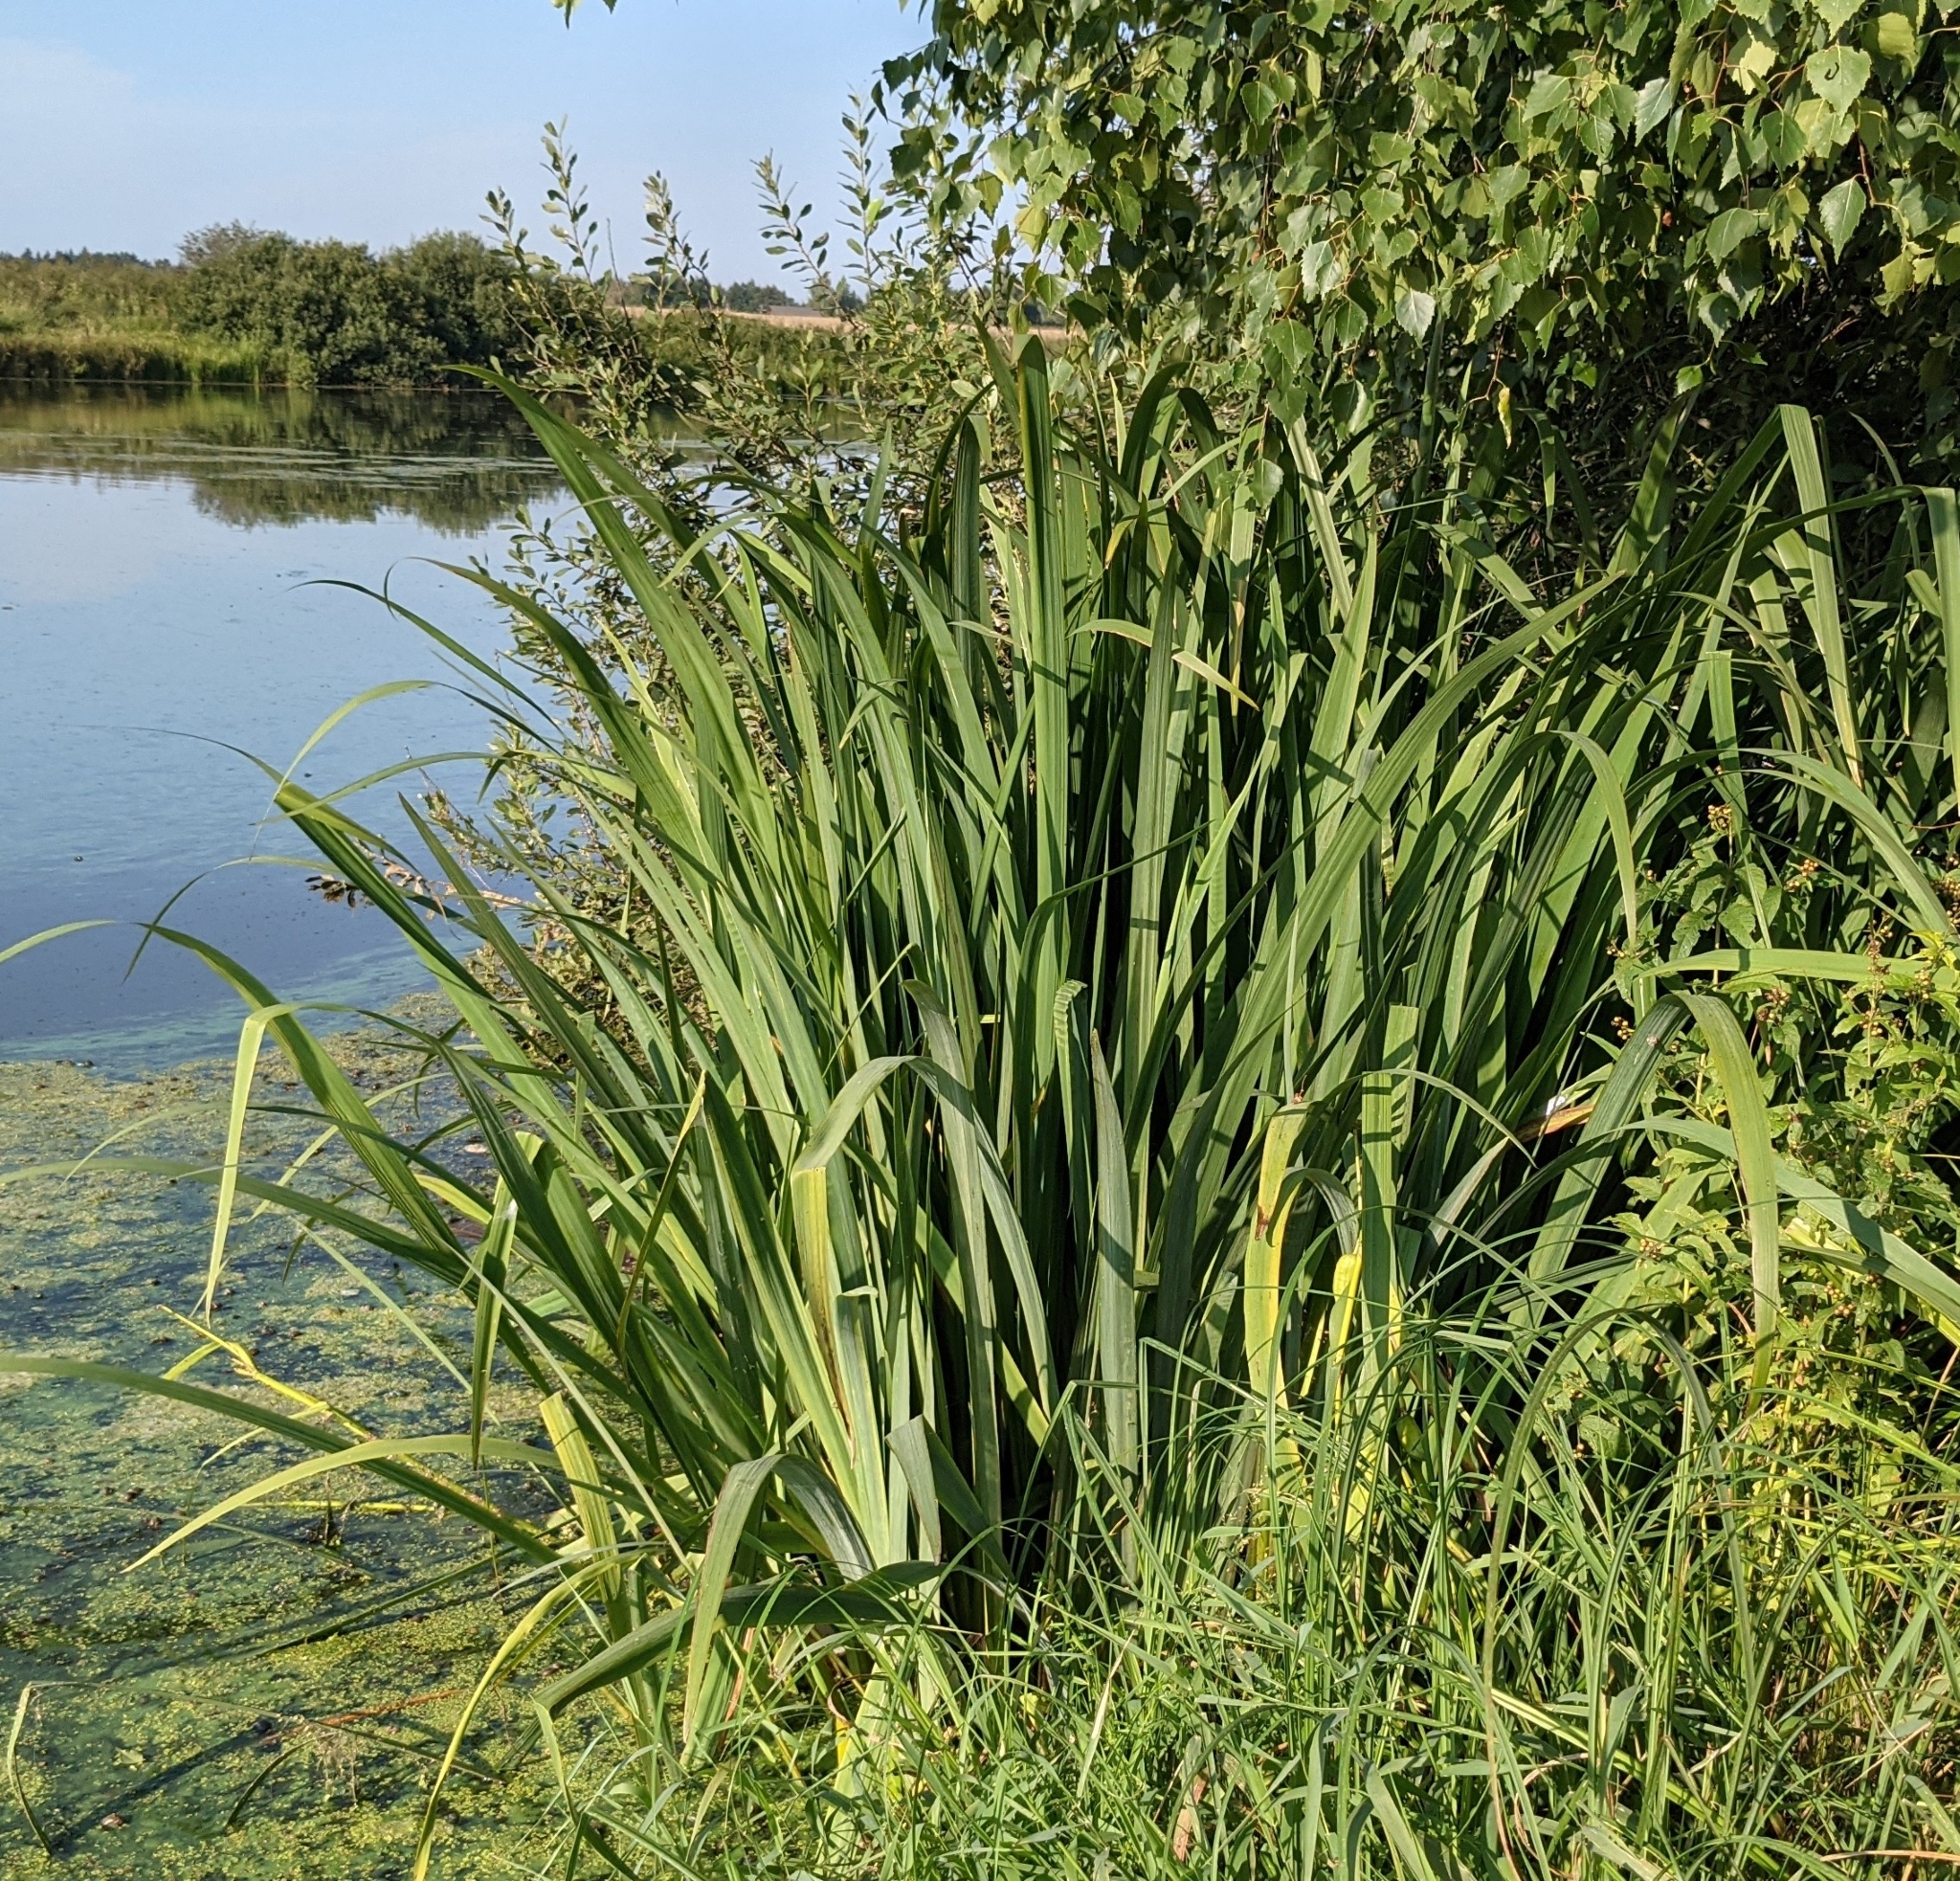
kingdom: Plantae
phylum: Tracheophyta
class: Liliopsida
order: Asparagales
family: Iridaceae
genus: Iris
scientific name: Iris pseudacorus
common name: Yellow flag
